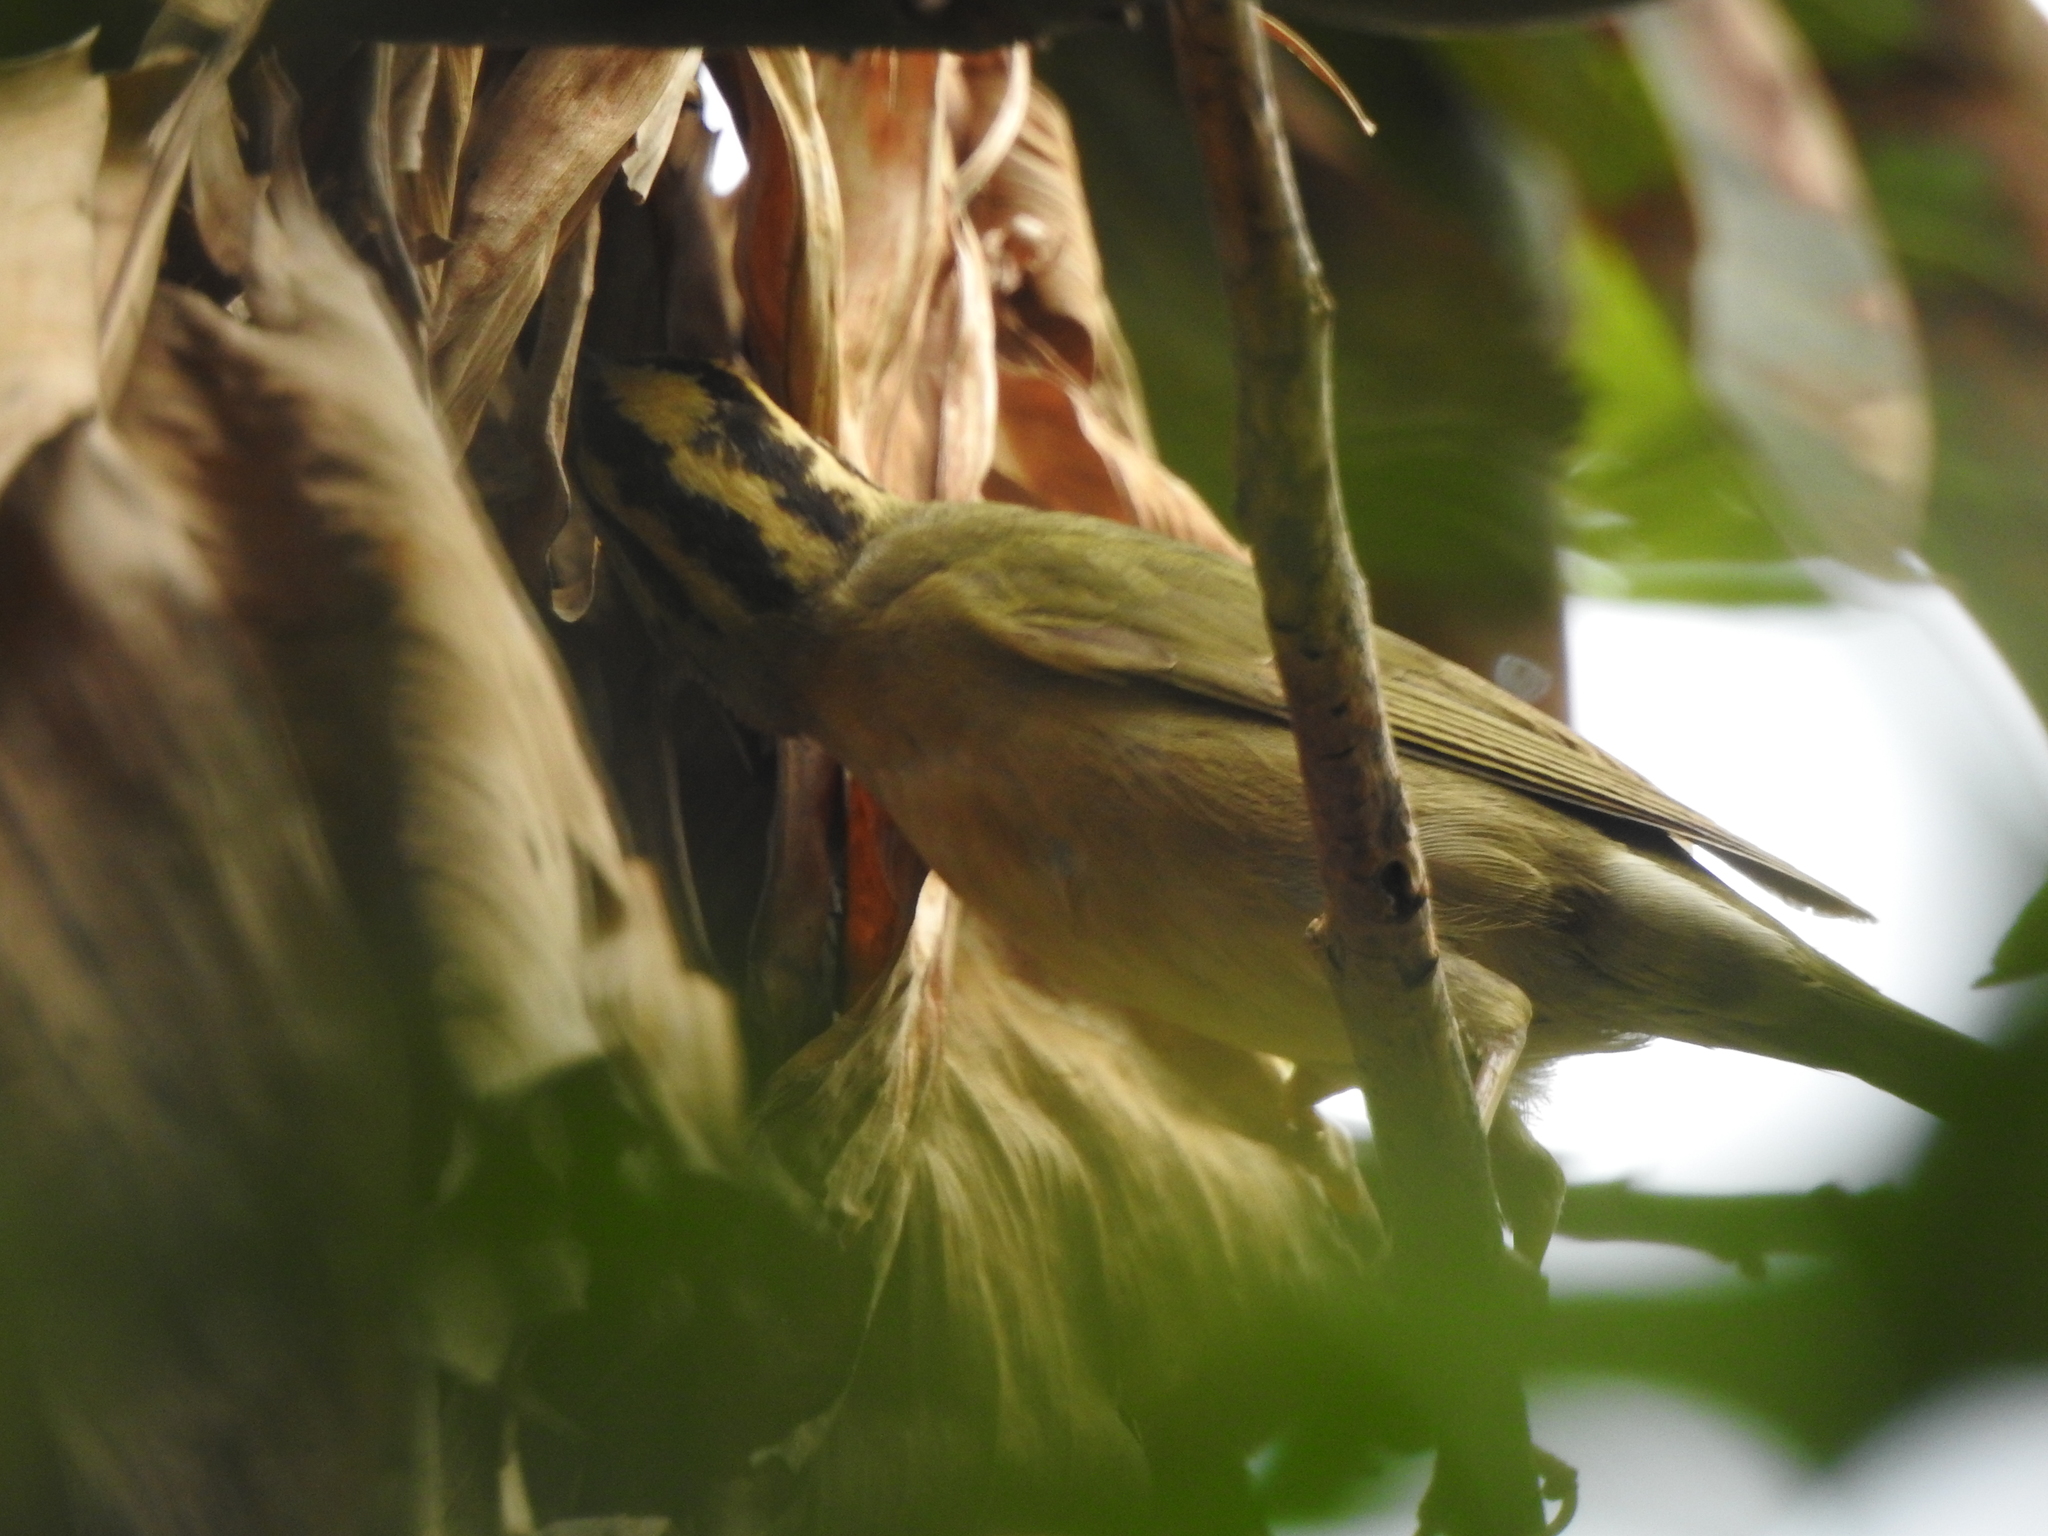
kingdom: Animalia
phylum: Chordata
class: Aves
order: Passeriformes
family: Parulidae
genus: Helmitheros
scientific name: Helmitheros vermivorum
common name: Worm-eating warbler
